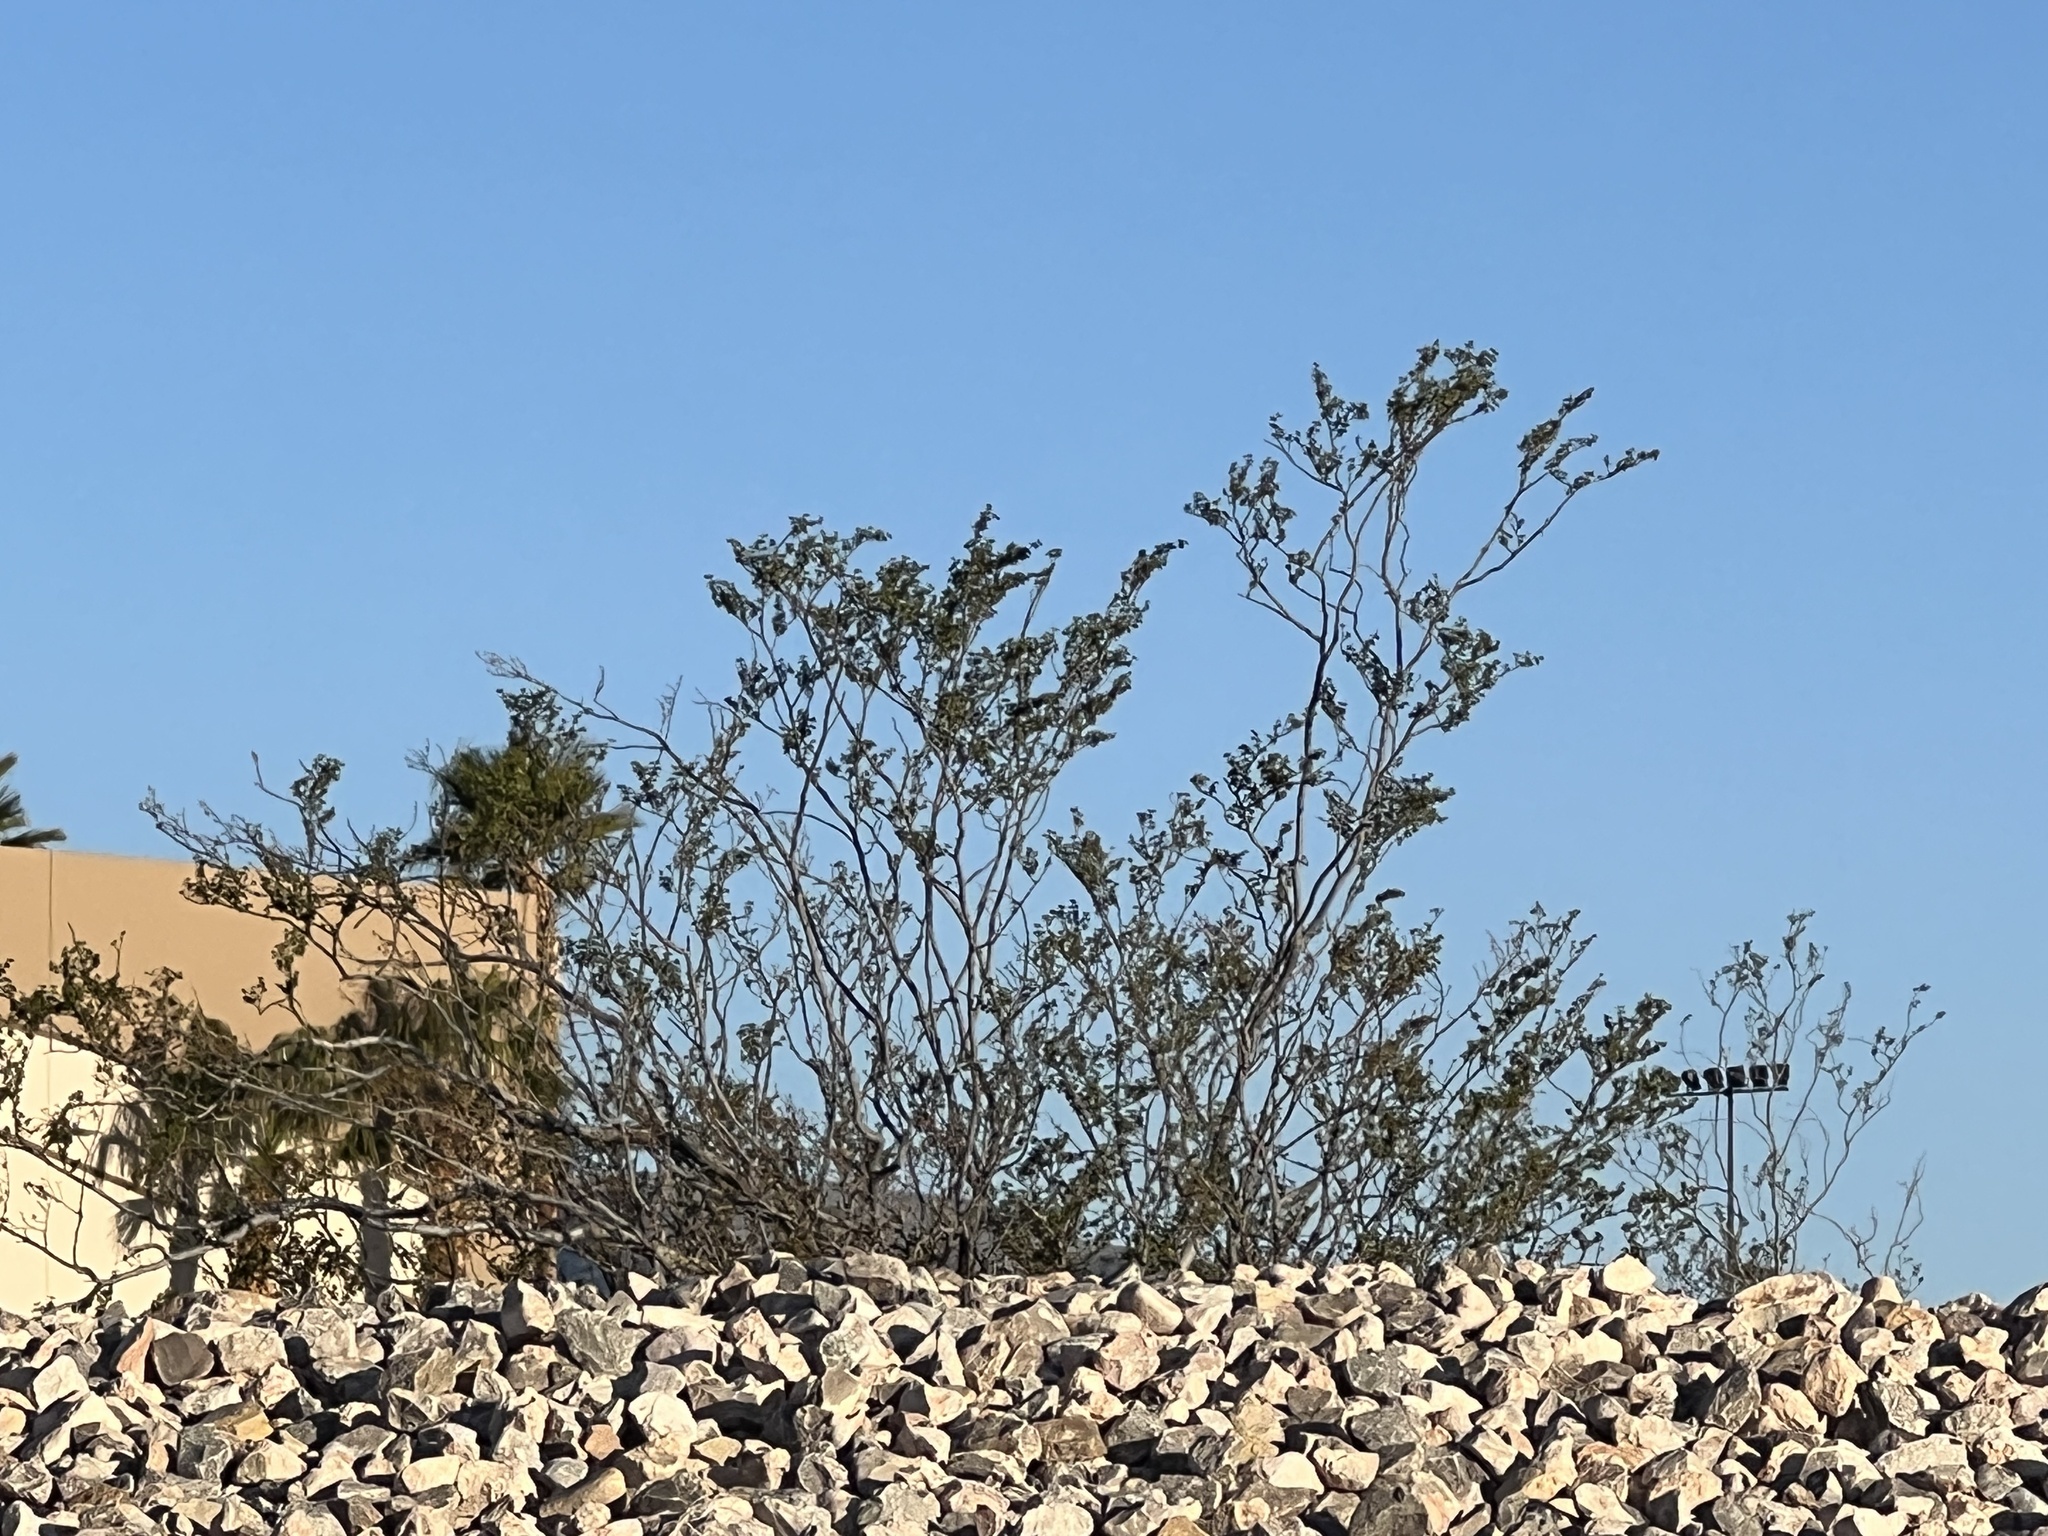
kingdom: Plantae
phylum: Tracheophyta
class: Magnoliopsida
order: Zygophyllales
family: Zygophyllaceae
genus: Larrea
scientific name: Larrea tridentata
